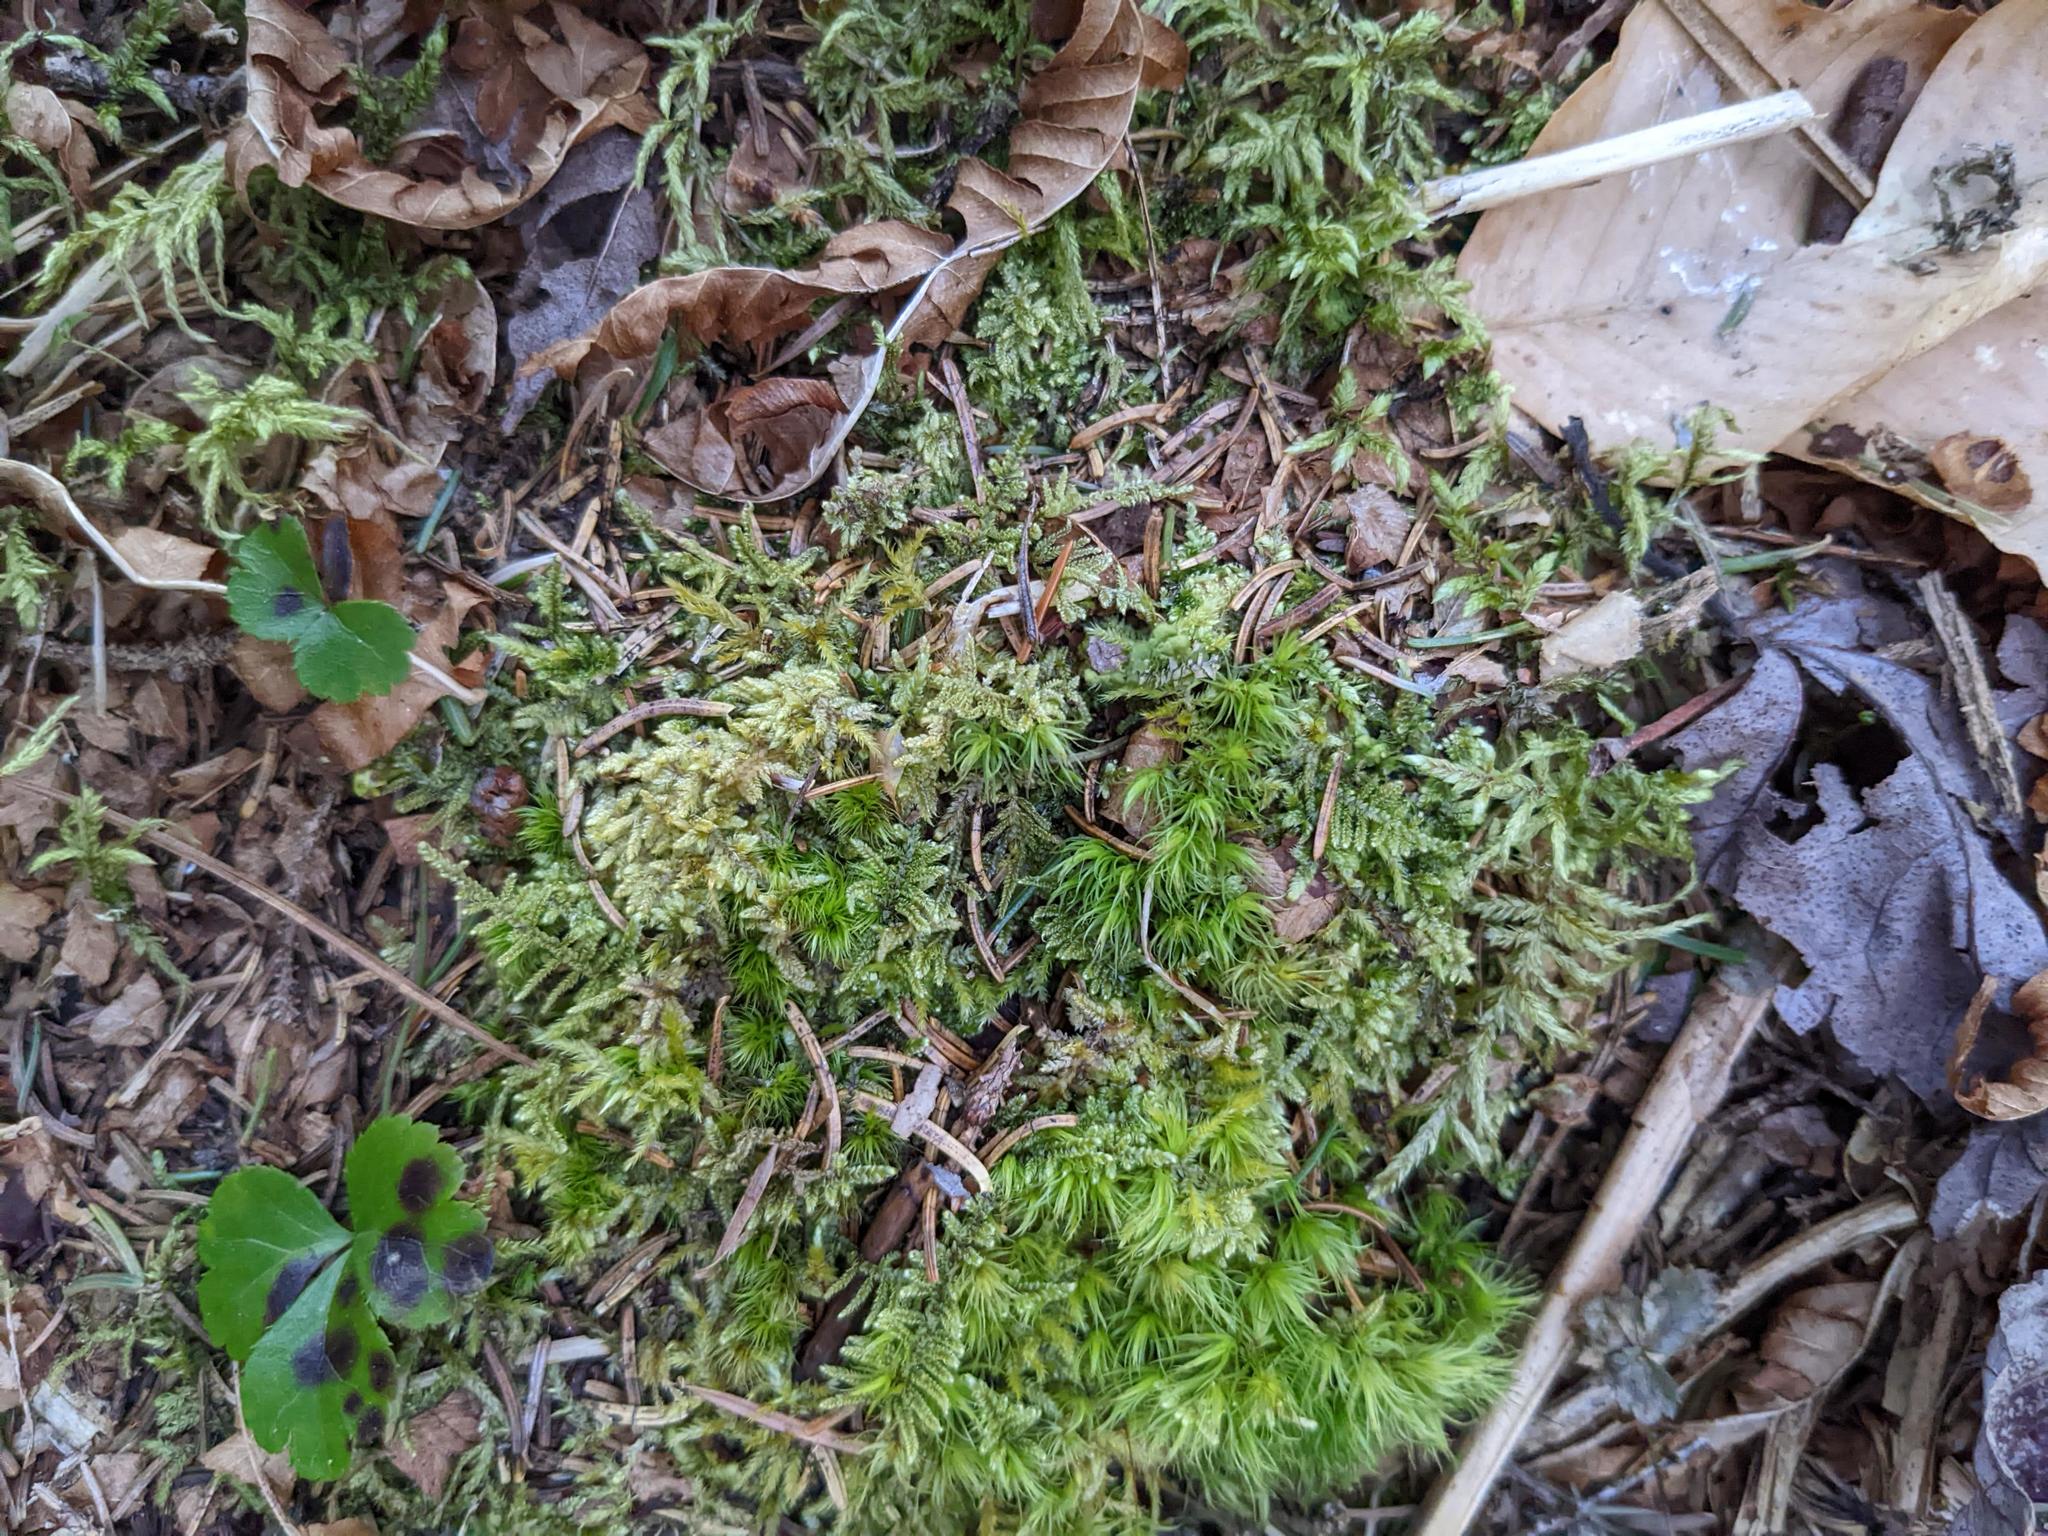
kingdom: Plantae
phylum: Tracheophyta
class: Magnoliopsida
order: Ranunculales
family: Ranunculaceae
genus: Coptis
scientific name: Coptis trifolia
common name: Canker-root
